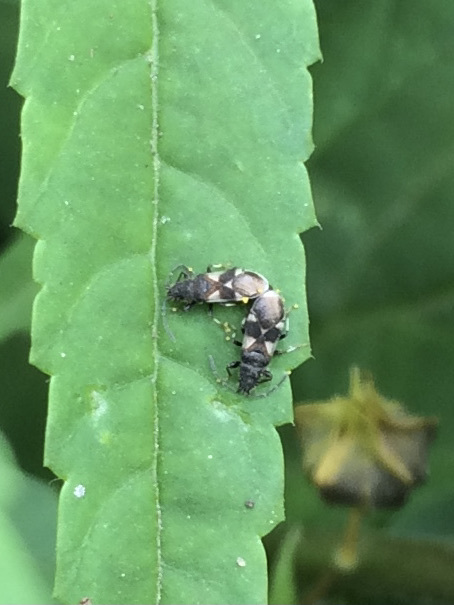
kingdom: Animalia
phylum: Arthropoda
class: Insecta
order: Hemiptera
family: Oxycarenidae
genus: Oxycarenus
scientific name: Oxycarenus bicolor
